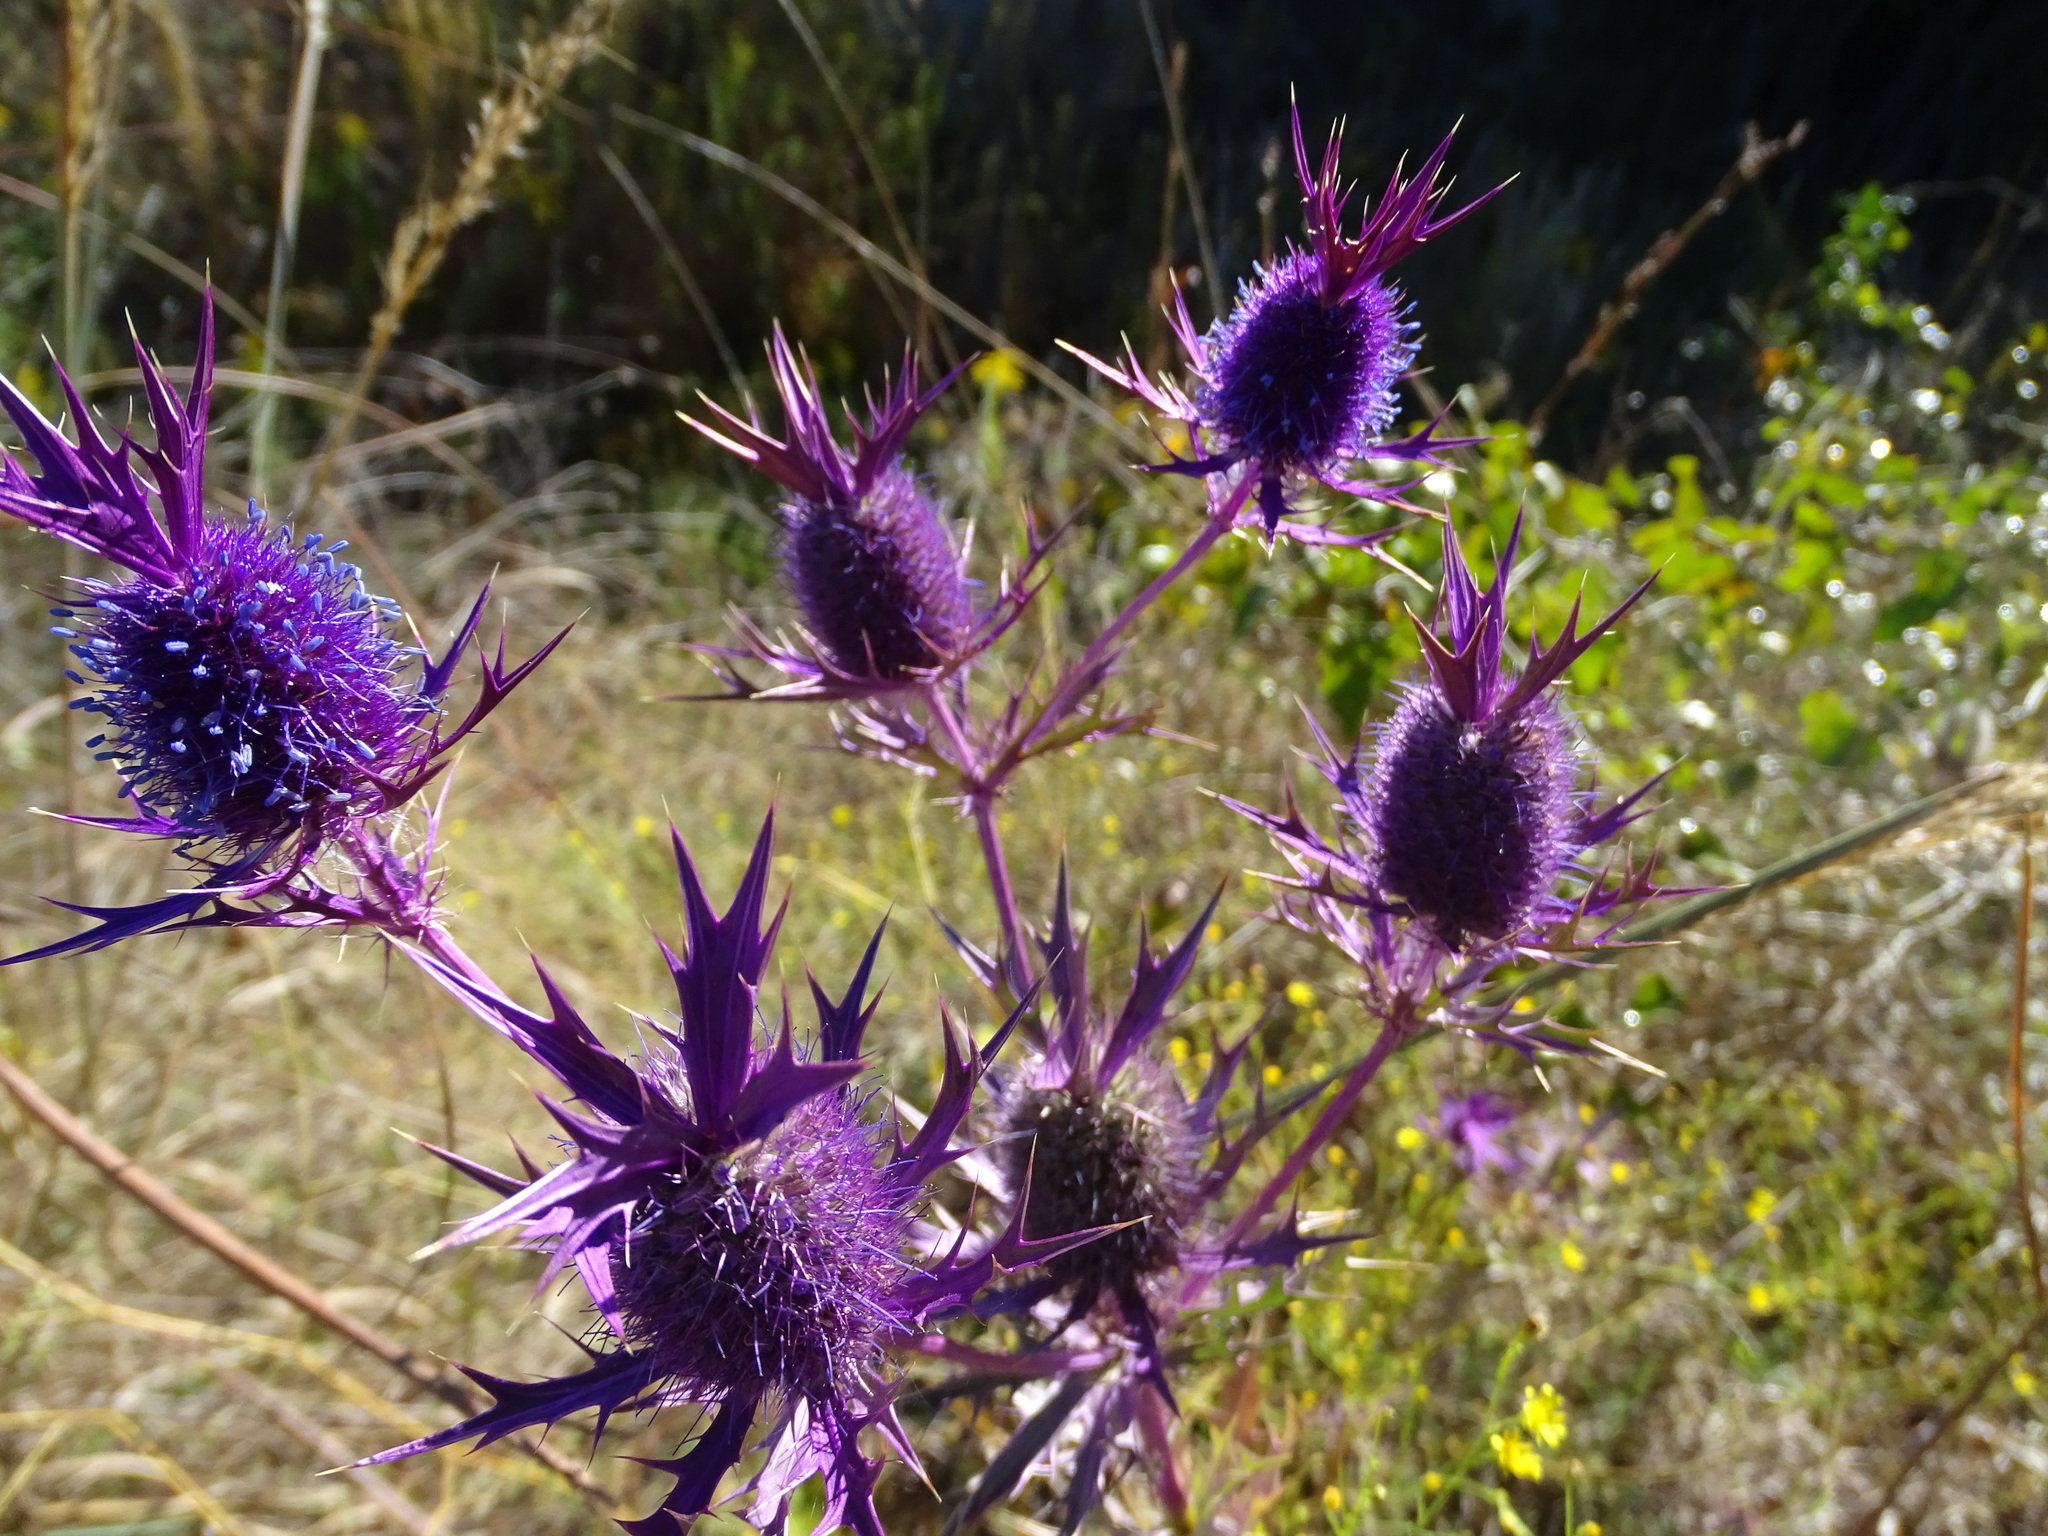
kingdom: Plantae
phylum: Tracheophyta
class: Magnoliopsida
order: Apiales
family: Apiaceae
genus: Eryngium
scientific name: Eryngium leavenworthii
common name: Leavenworth's eryngo
